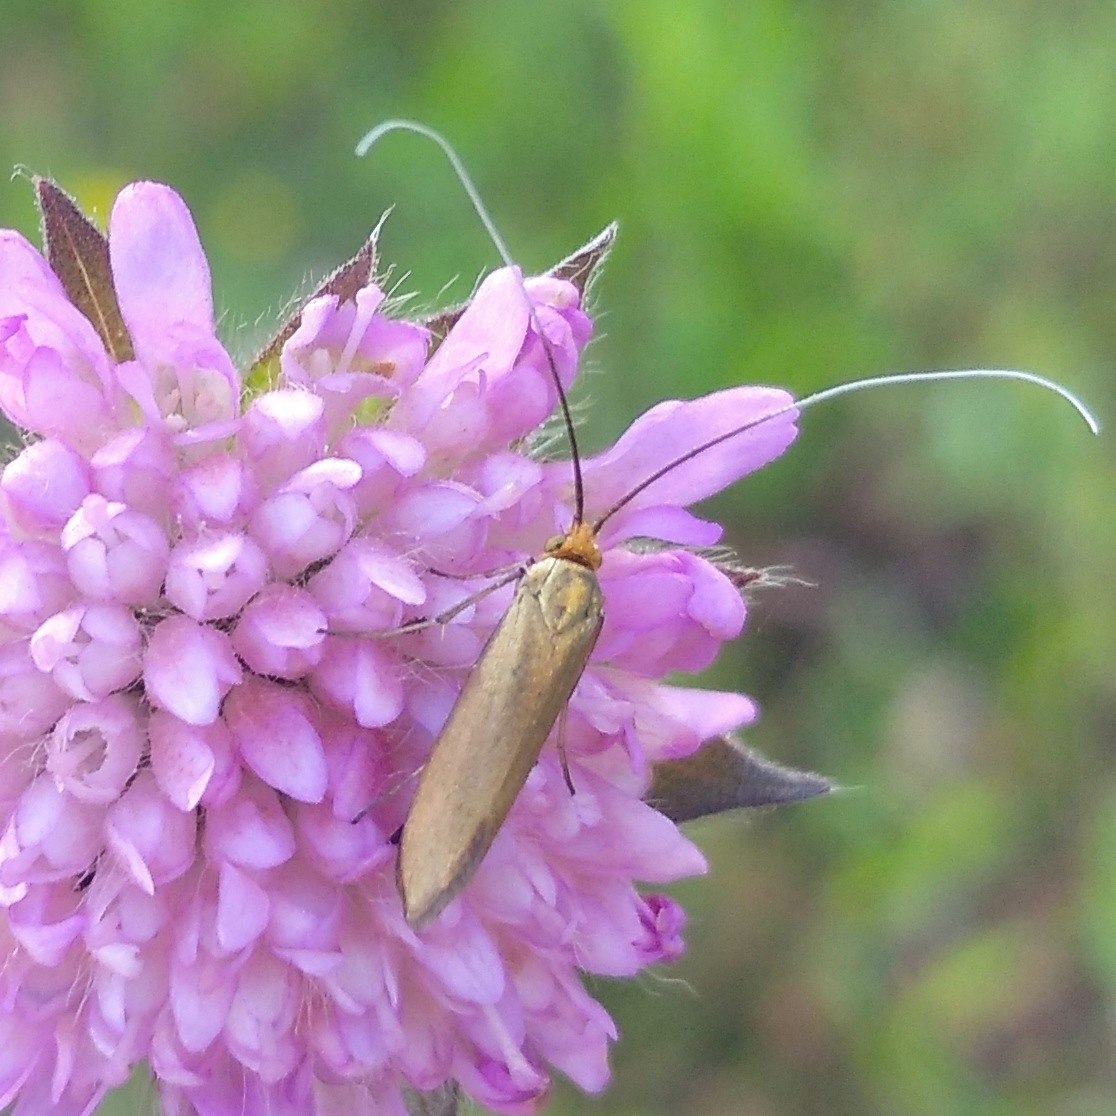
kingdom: Animalia
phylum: Arthropoda
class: Insecta
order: Lepidoptera
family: Adelidae
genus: Nemophora
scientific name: Nemophora metallica
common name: Brassy long-horn
